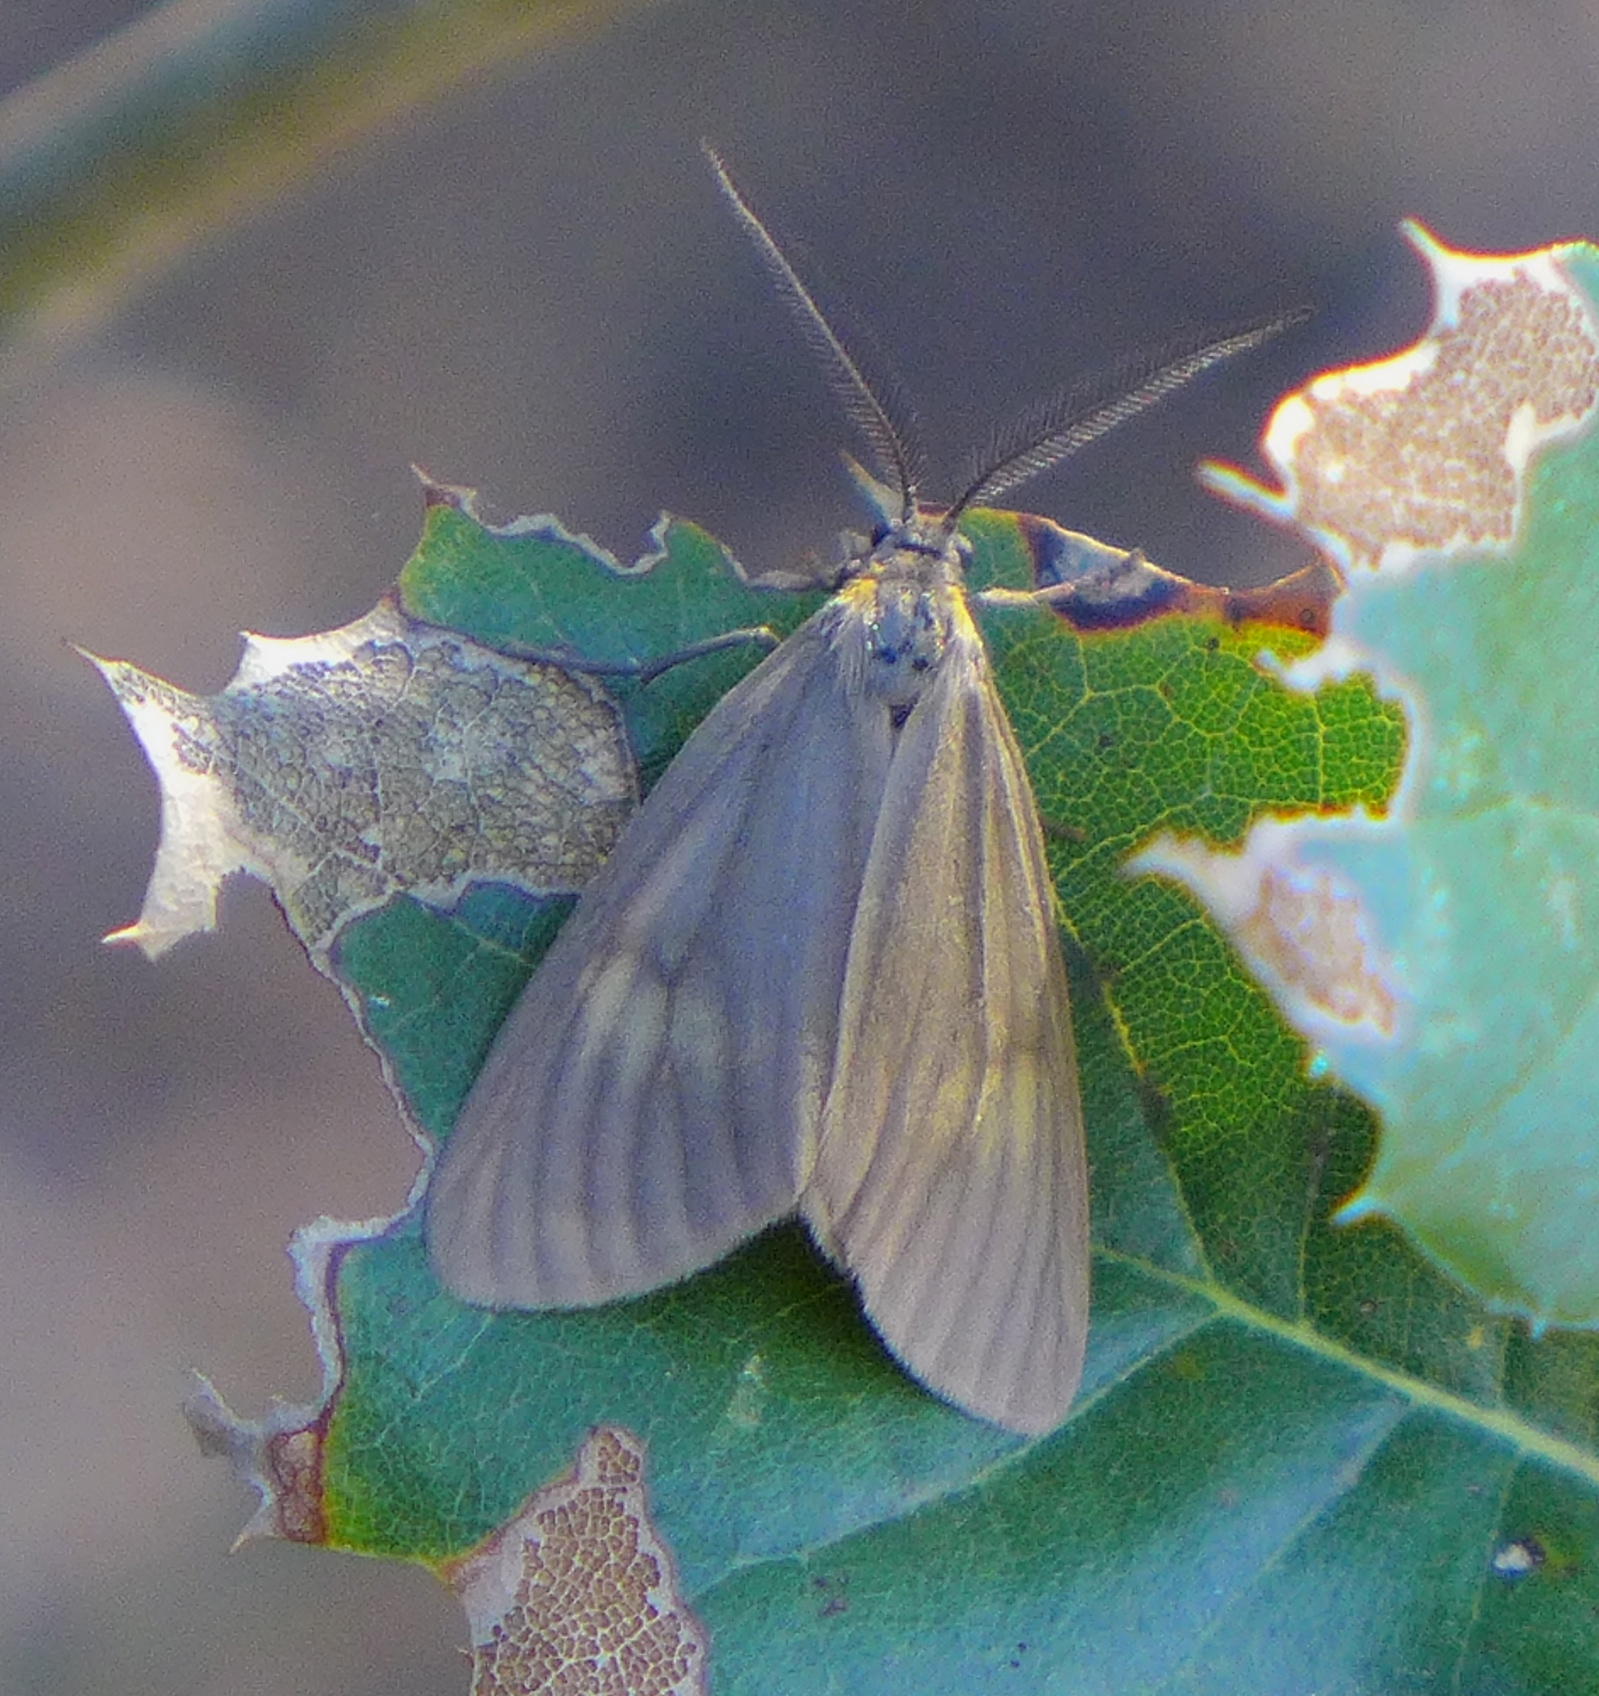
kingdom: Animalia
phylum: Arthropoda
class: Insecta
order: Lepidoptera
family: Notodontidae
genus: Phryganidia
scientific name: Phryganidia californica
